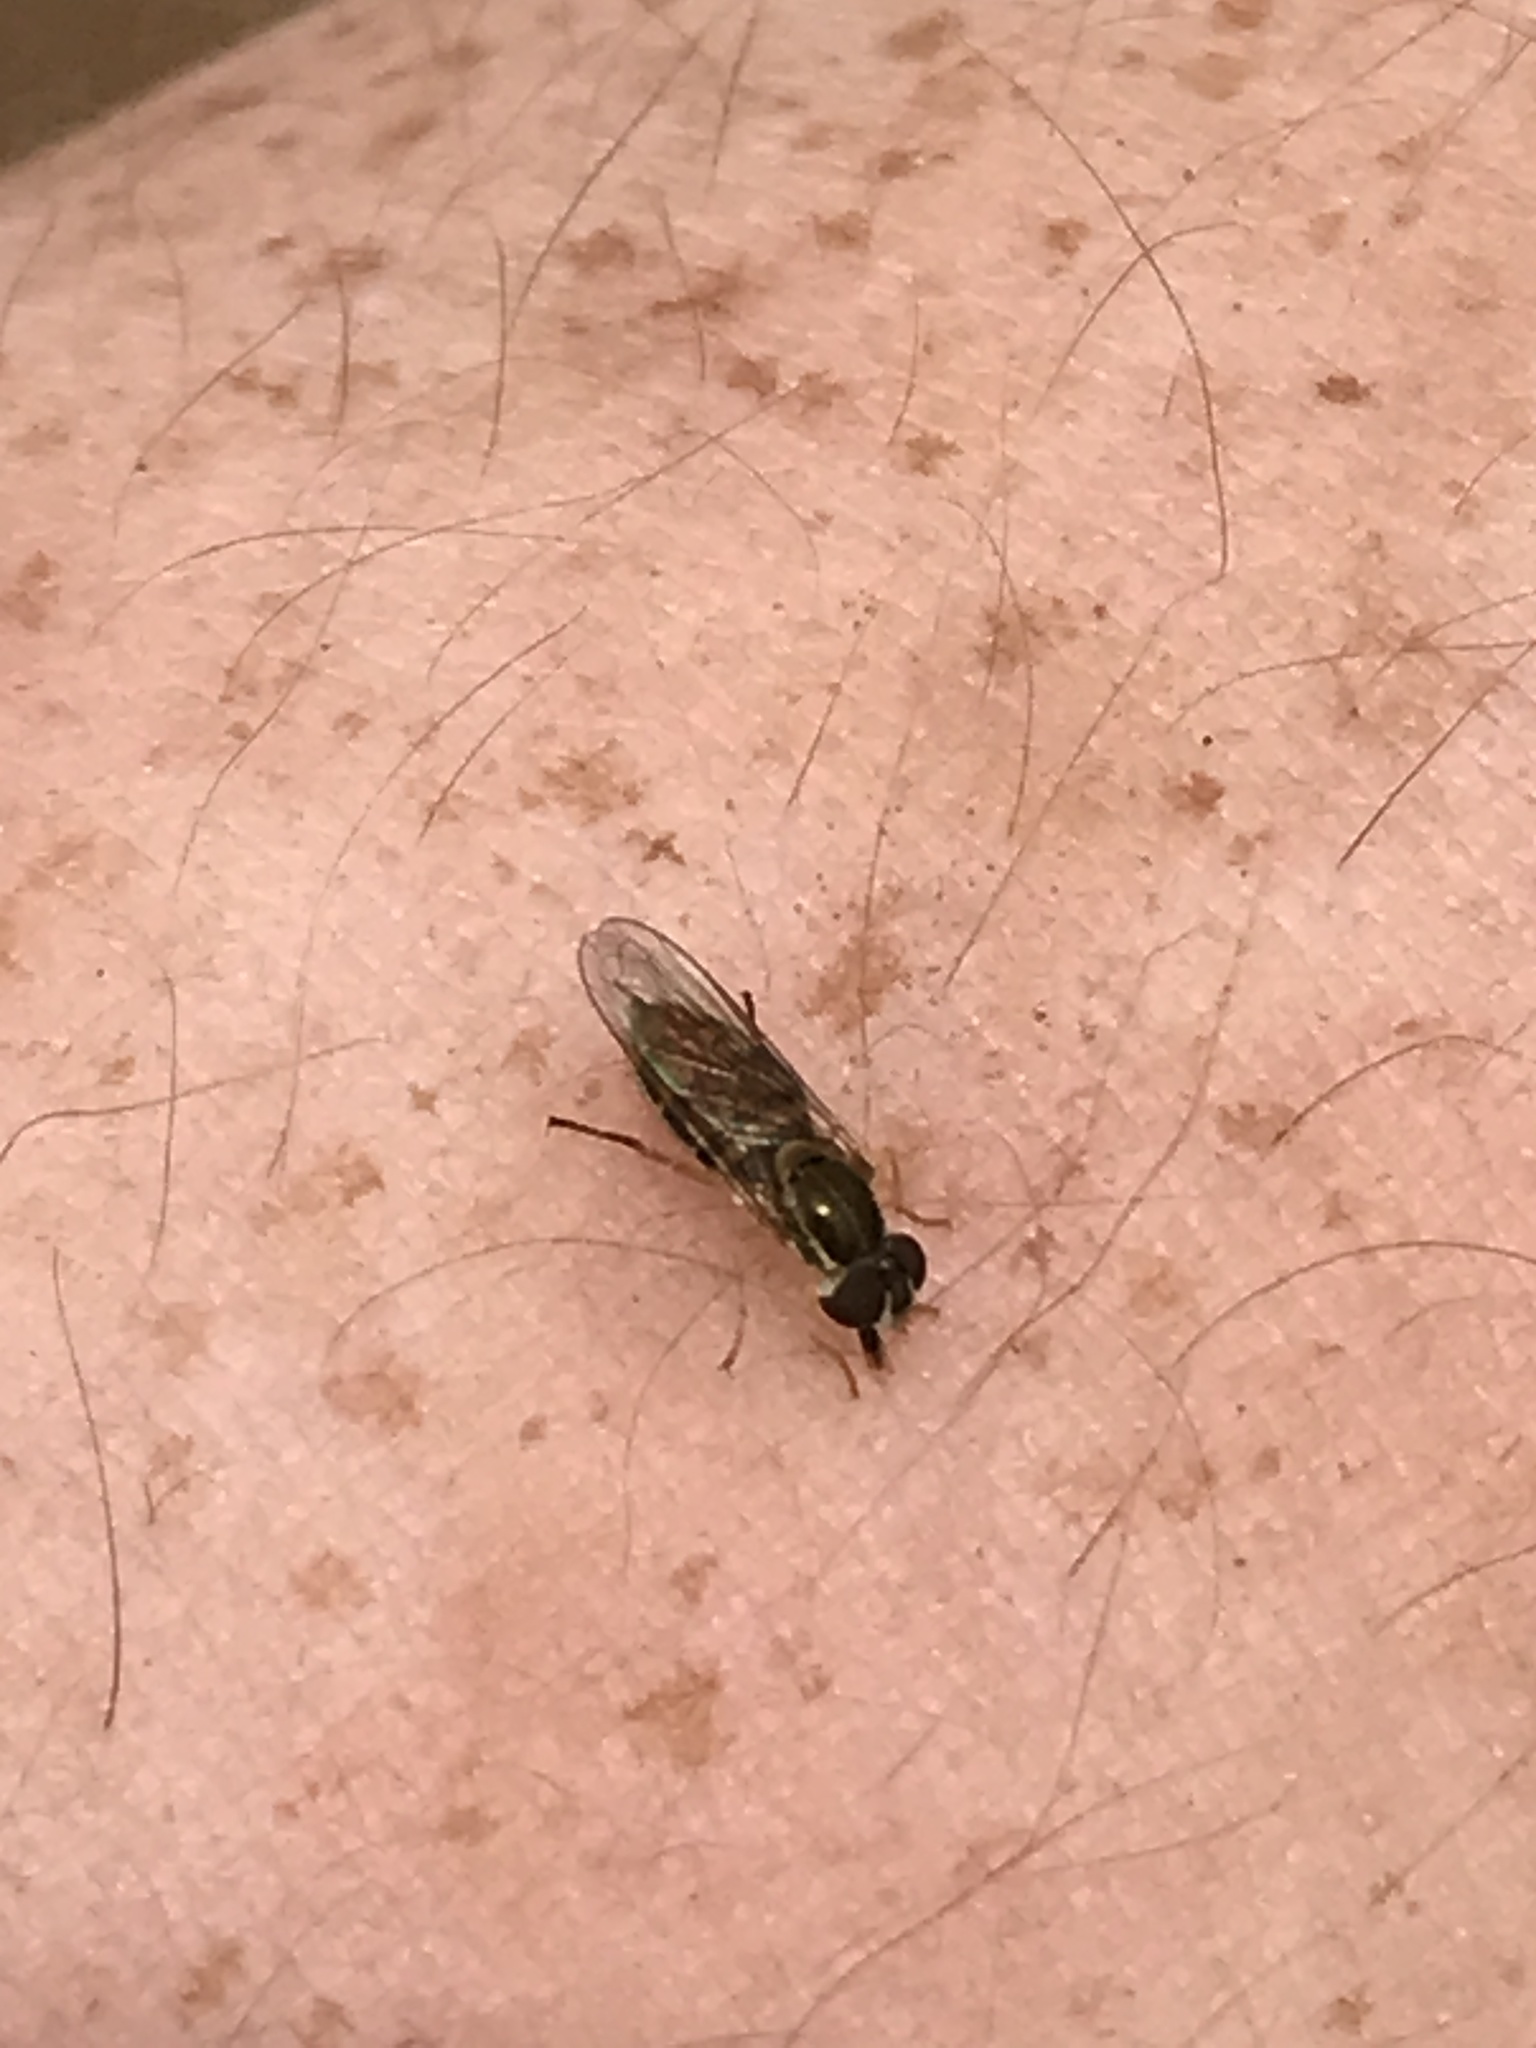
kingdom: Animalia
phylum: Arthropoda
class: Insecta
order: Diptera
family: Syrphidae
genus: Toxomerus
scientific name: Toxomerus marginatus
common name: Syrphid fly
